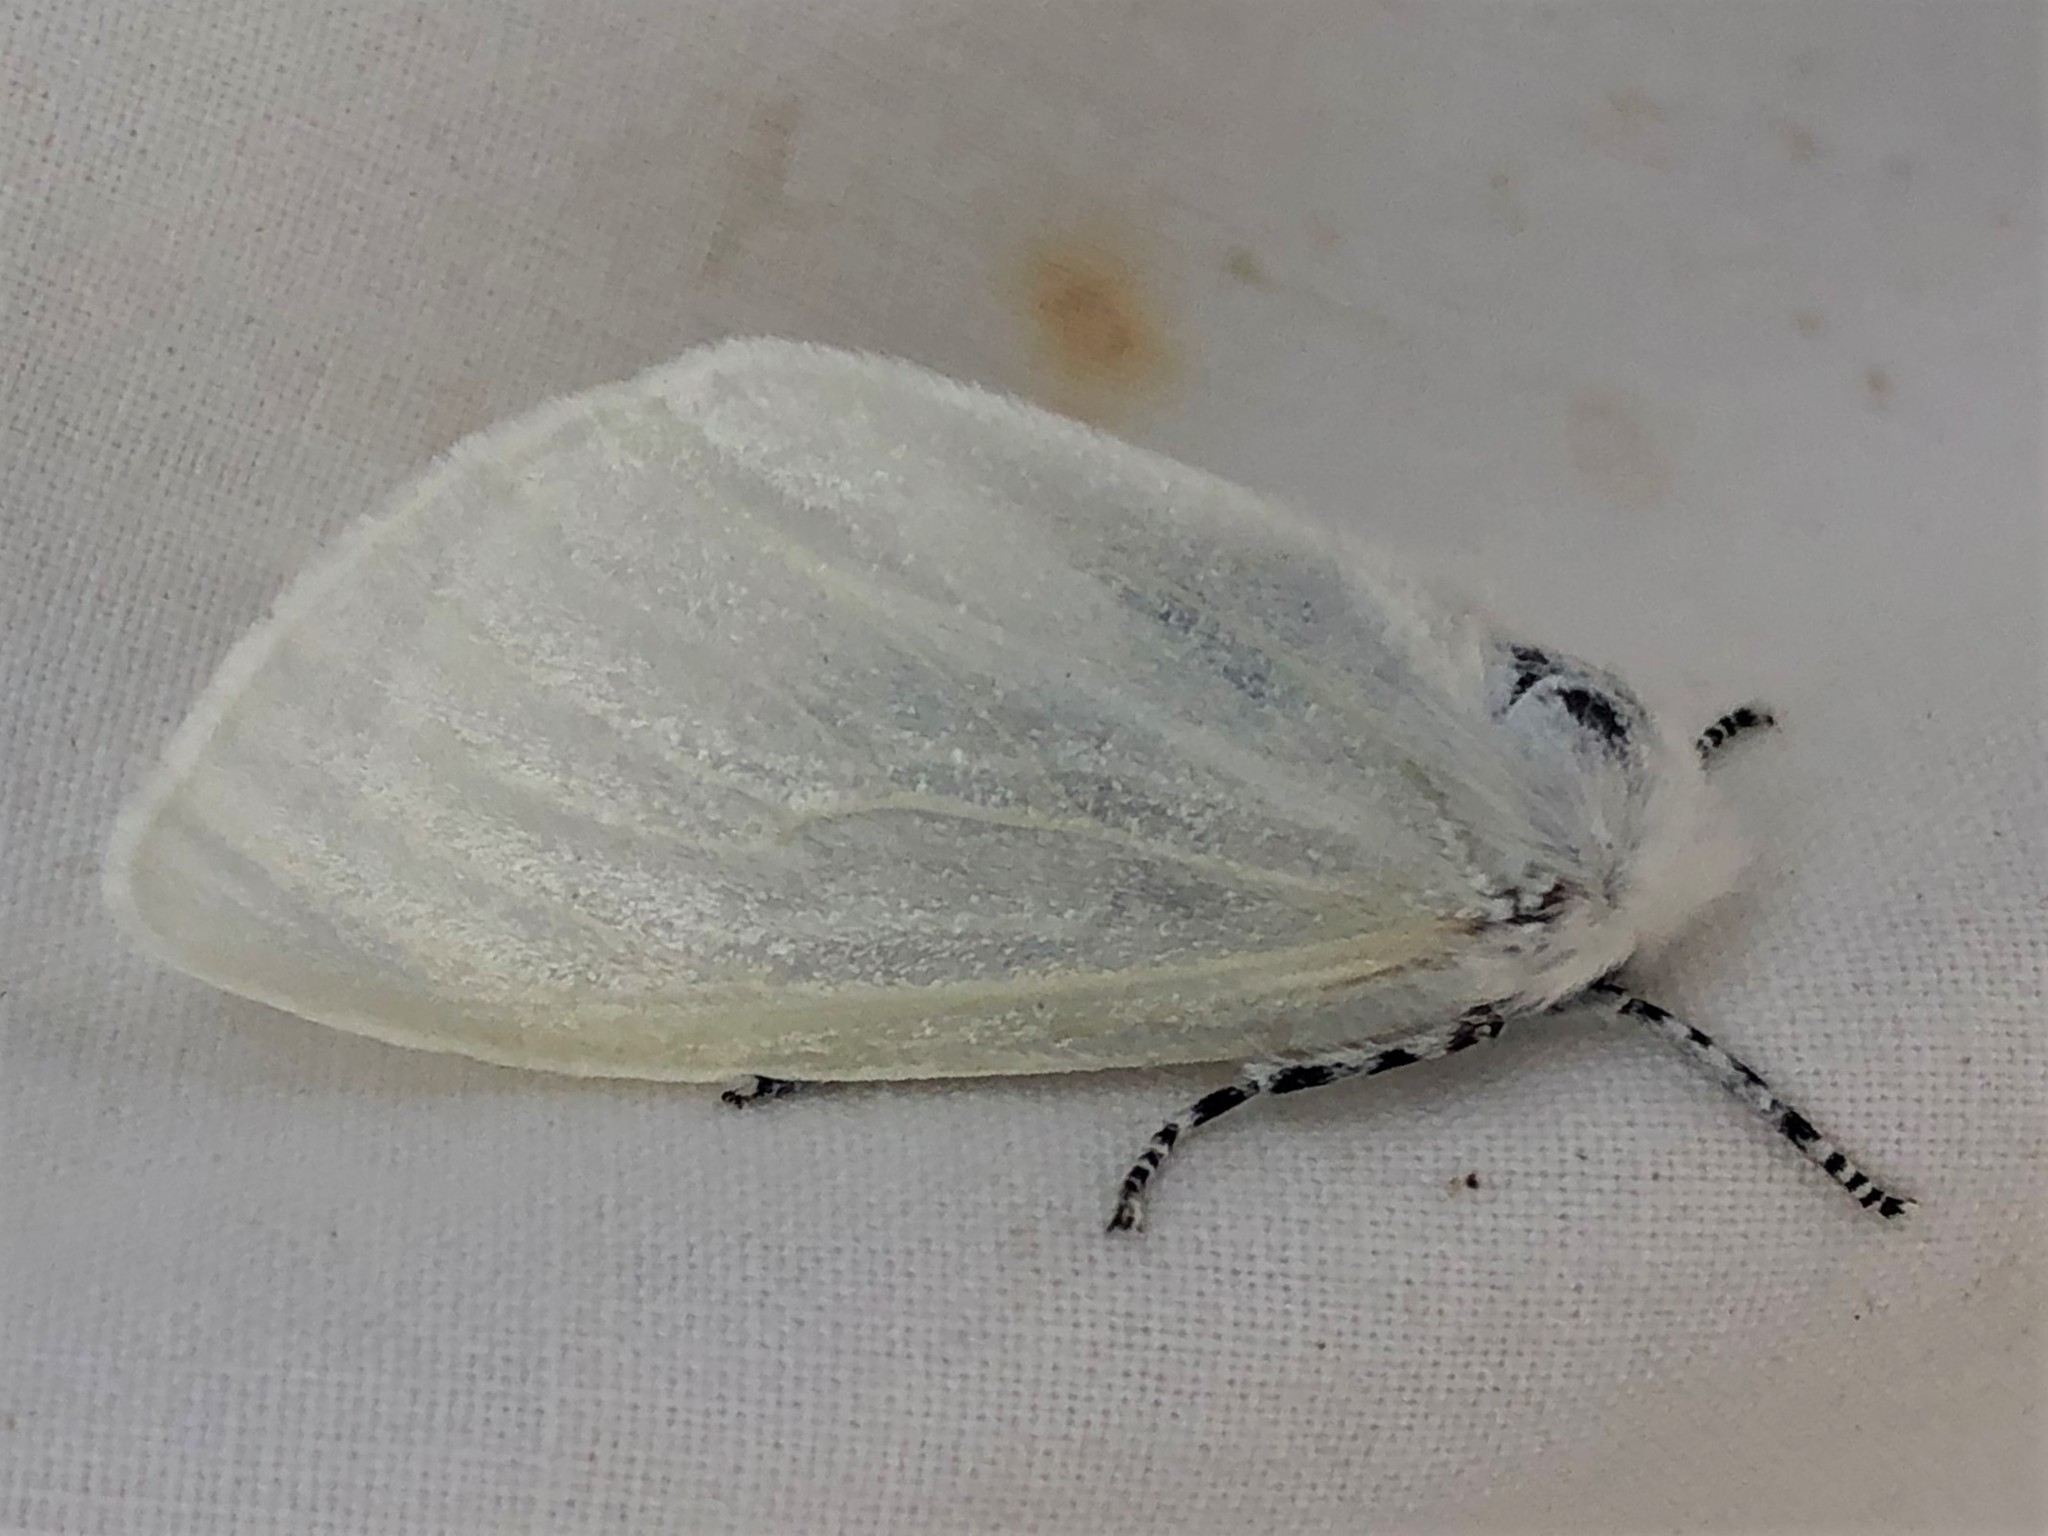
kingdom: Animalia
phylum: Arthropoda
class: Insecta
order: Lepidoptera
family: Erebidae
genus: Leucoma
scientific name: Leucoma salicis
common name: White satin moth
